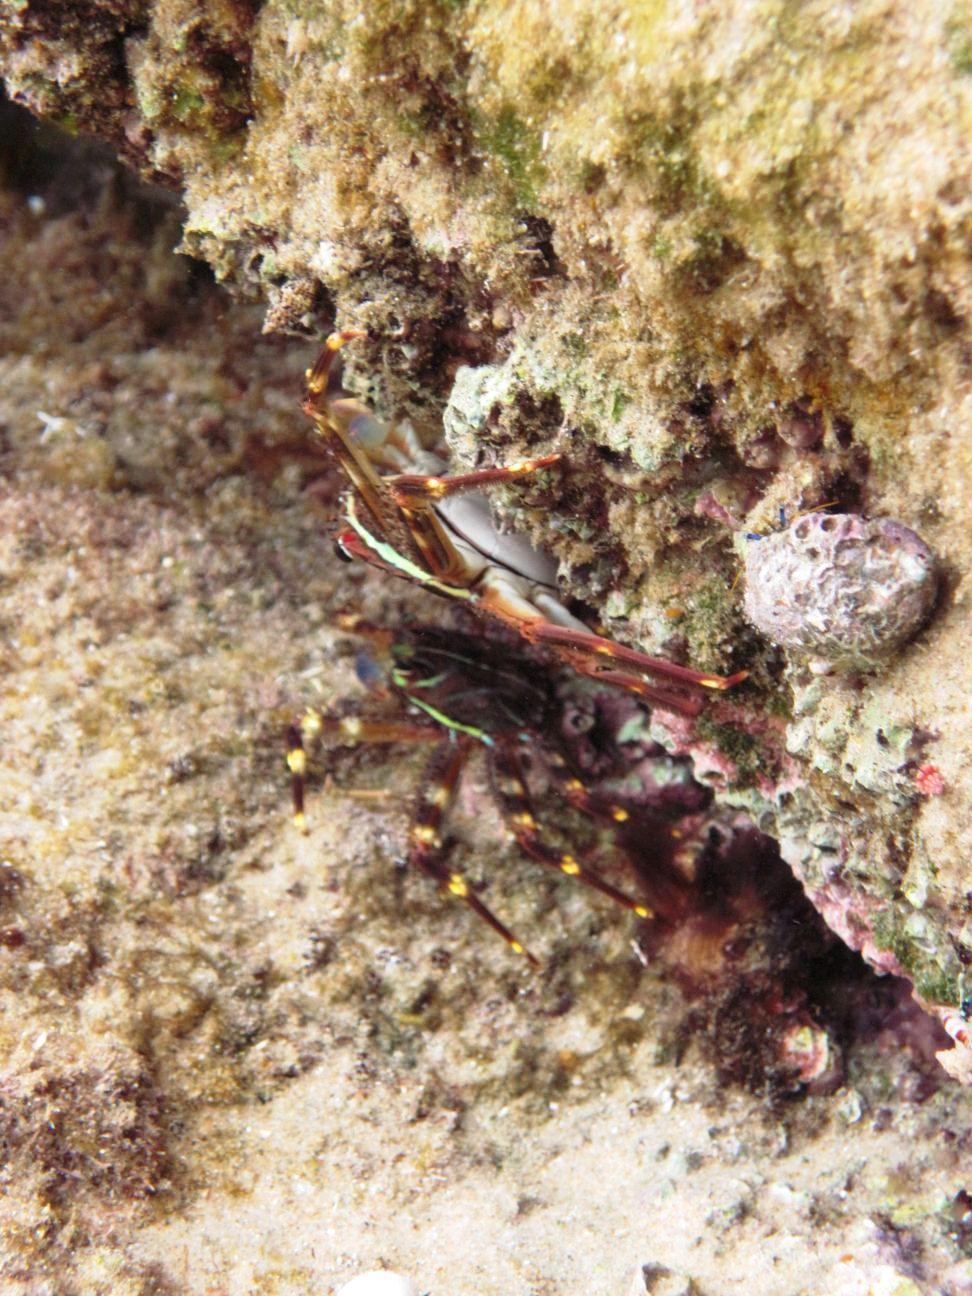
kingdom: Animalia
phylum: Arthropoda
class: Malacostraca
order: Decapoda
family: Percnidae
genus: Percnon
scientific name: Percnon planissimum
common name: Flat rock crab
